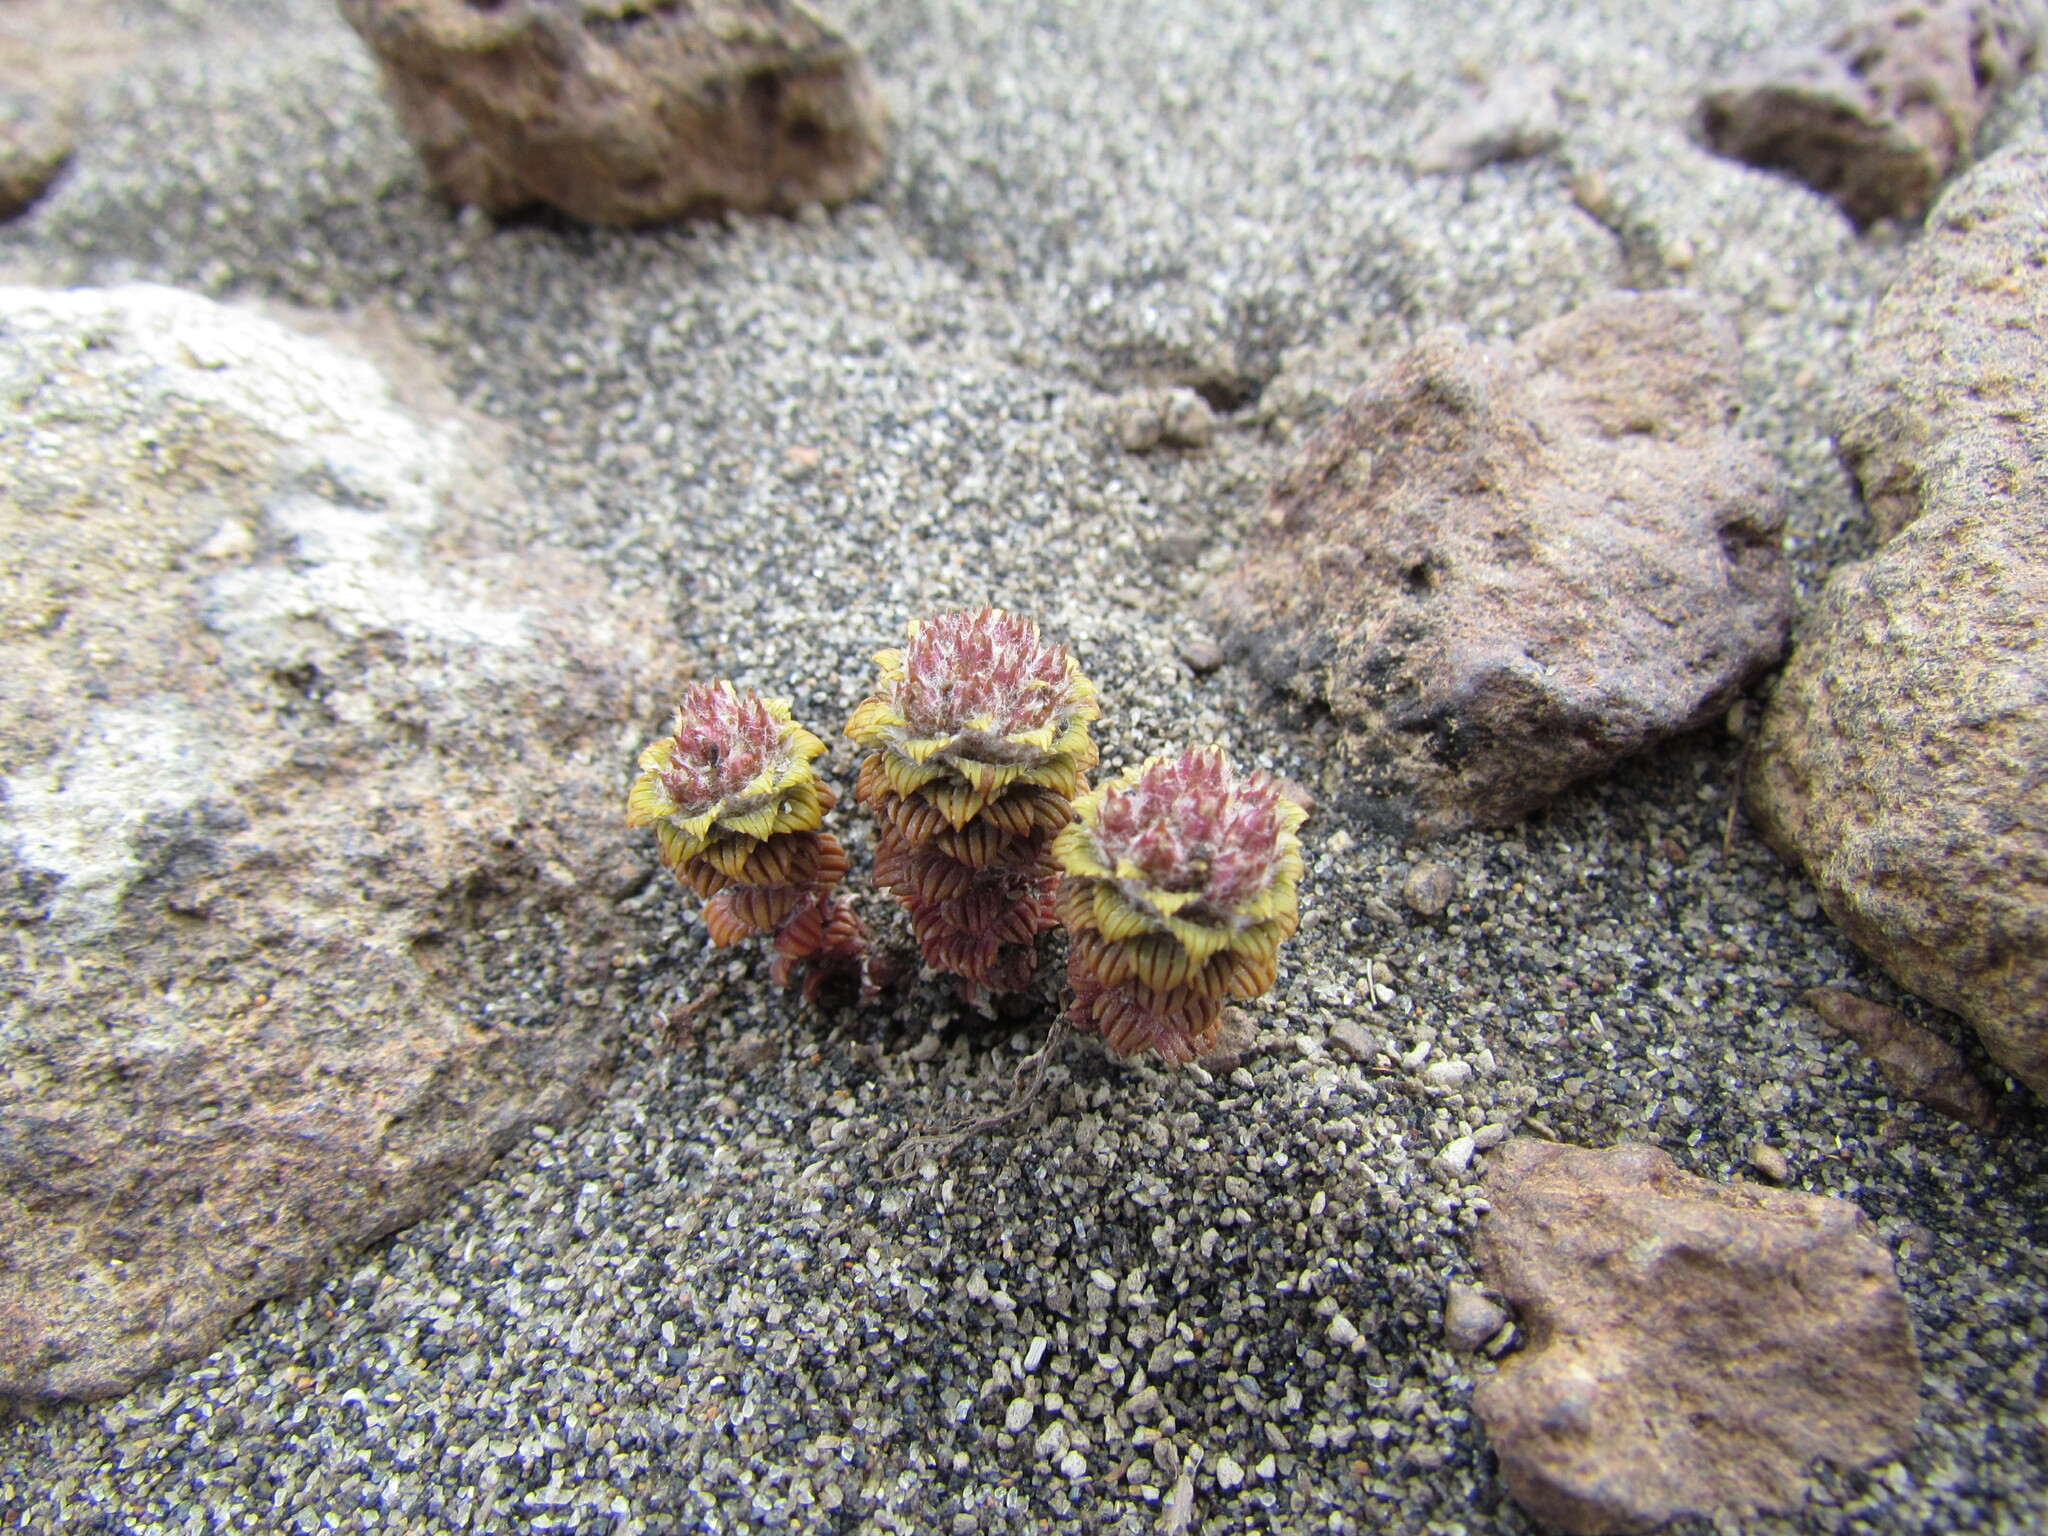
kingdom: Plantae
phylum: Tracheophyta
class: Magnoliopsida
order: Asterales
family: Asteraceae
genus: Nassauvia
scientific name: Nassauvia lagascae
